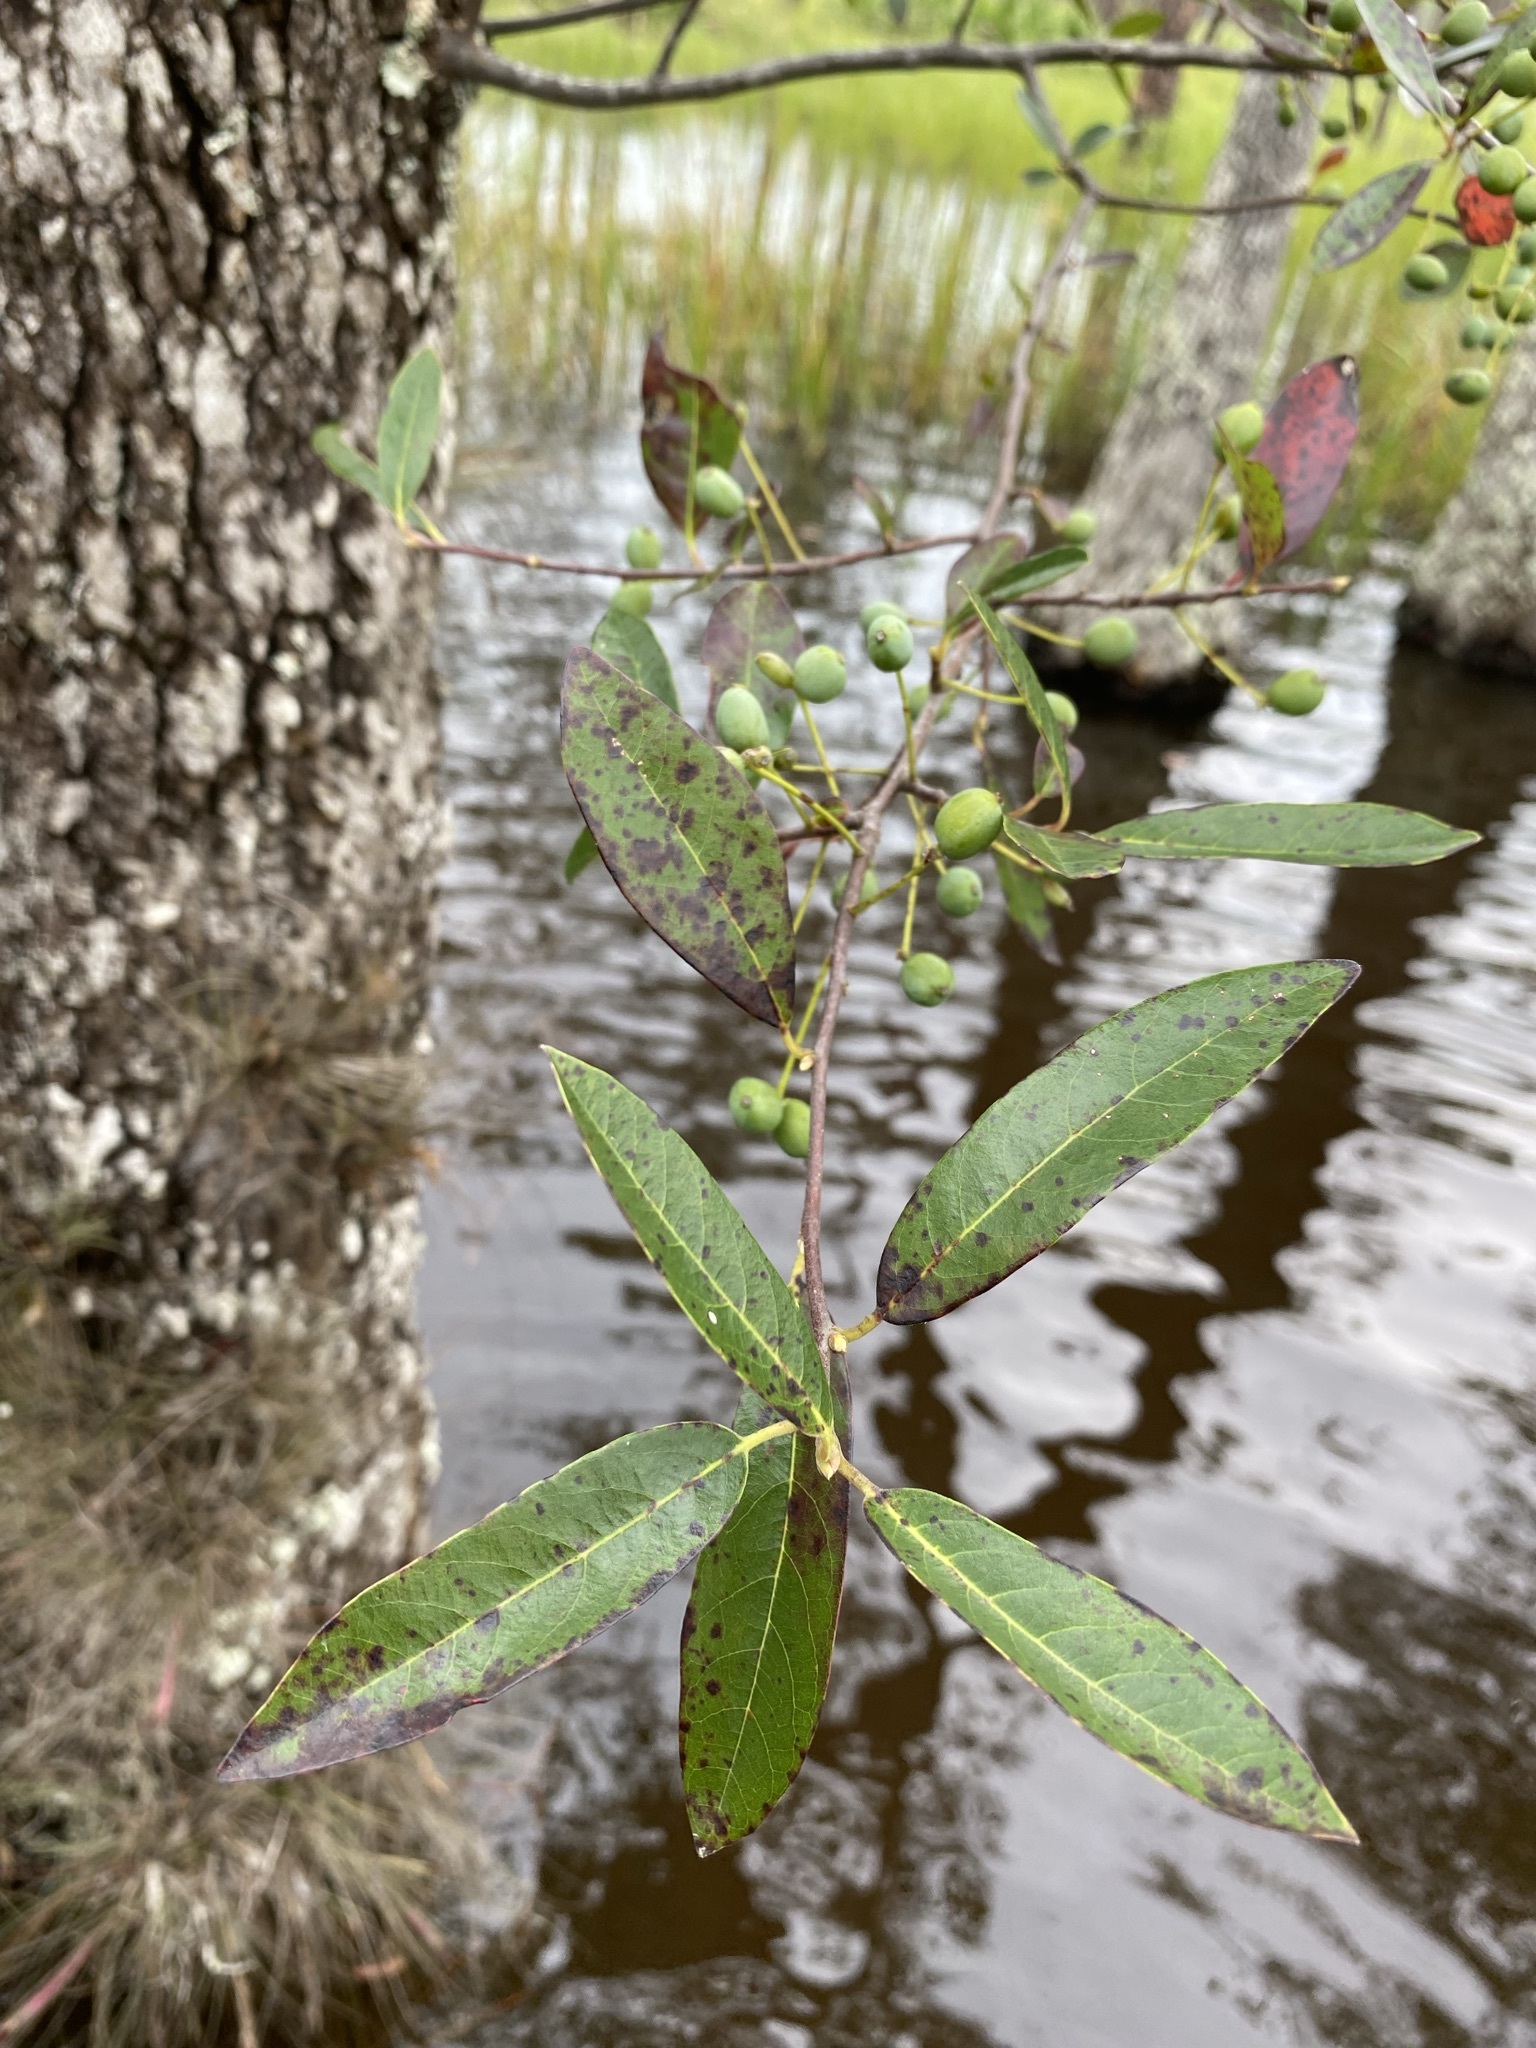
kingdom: Plantae
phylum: Tracheophyta
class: Magnoliopsida
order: Cornales
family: Nyssaceae
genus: Nyssa
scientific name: Nyssa biflora
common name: Swamp blackgum
